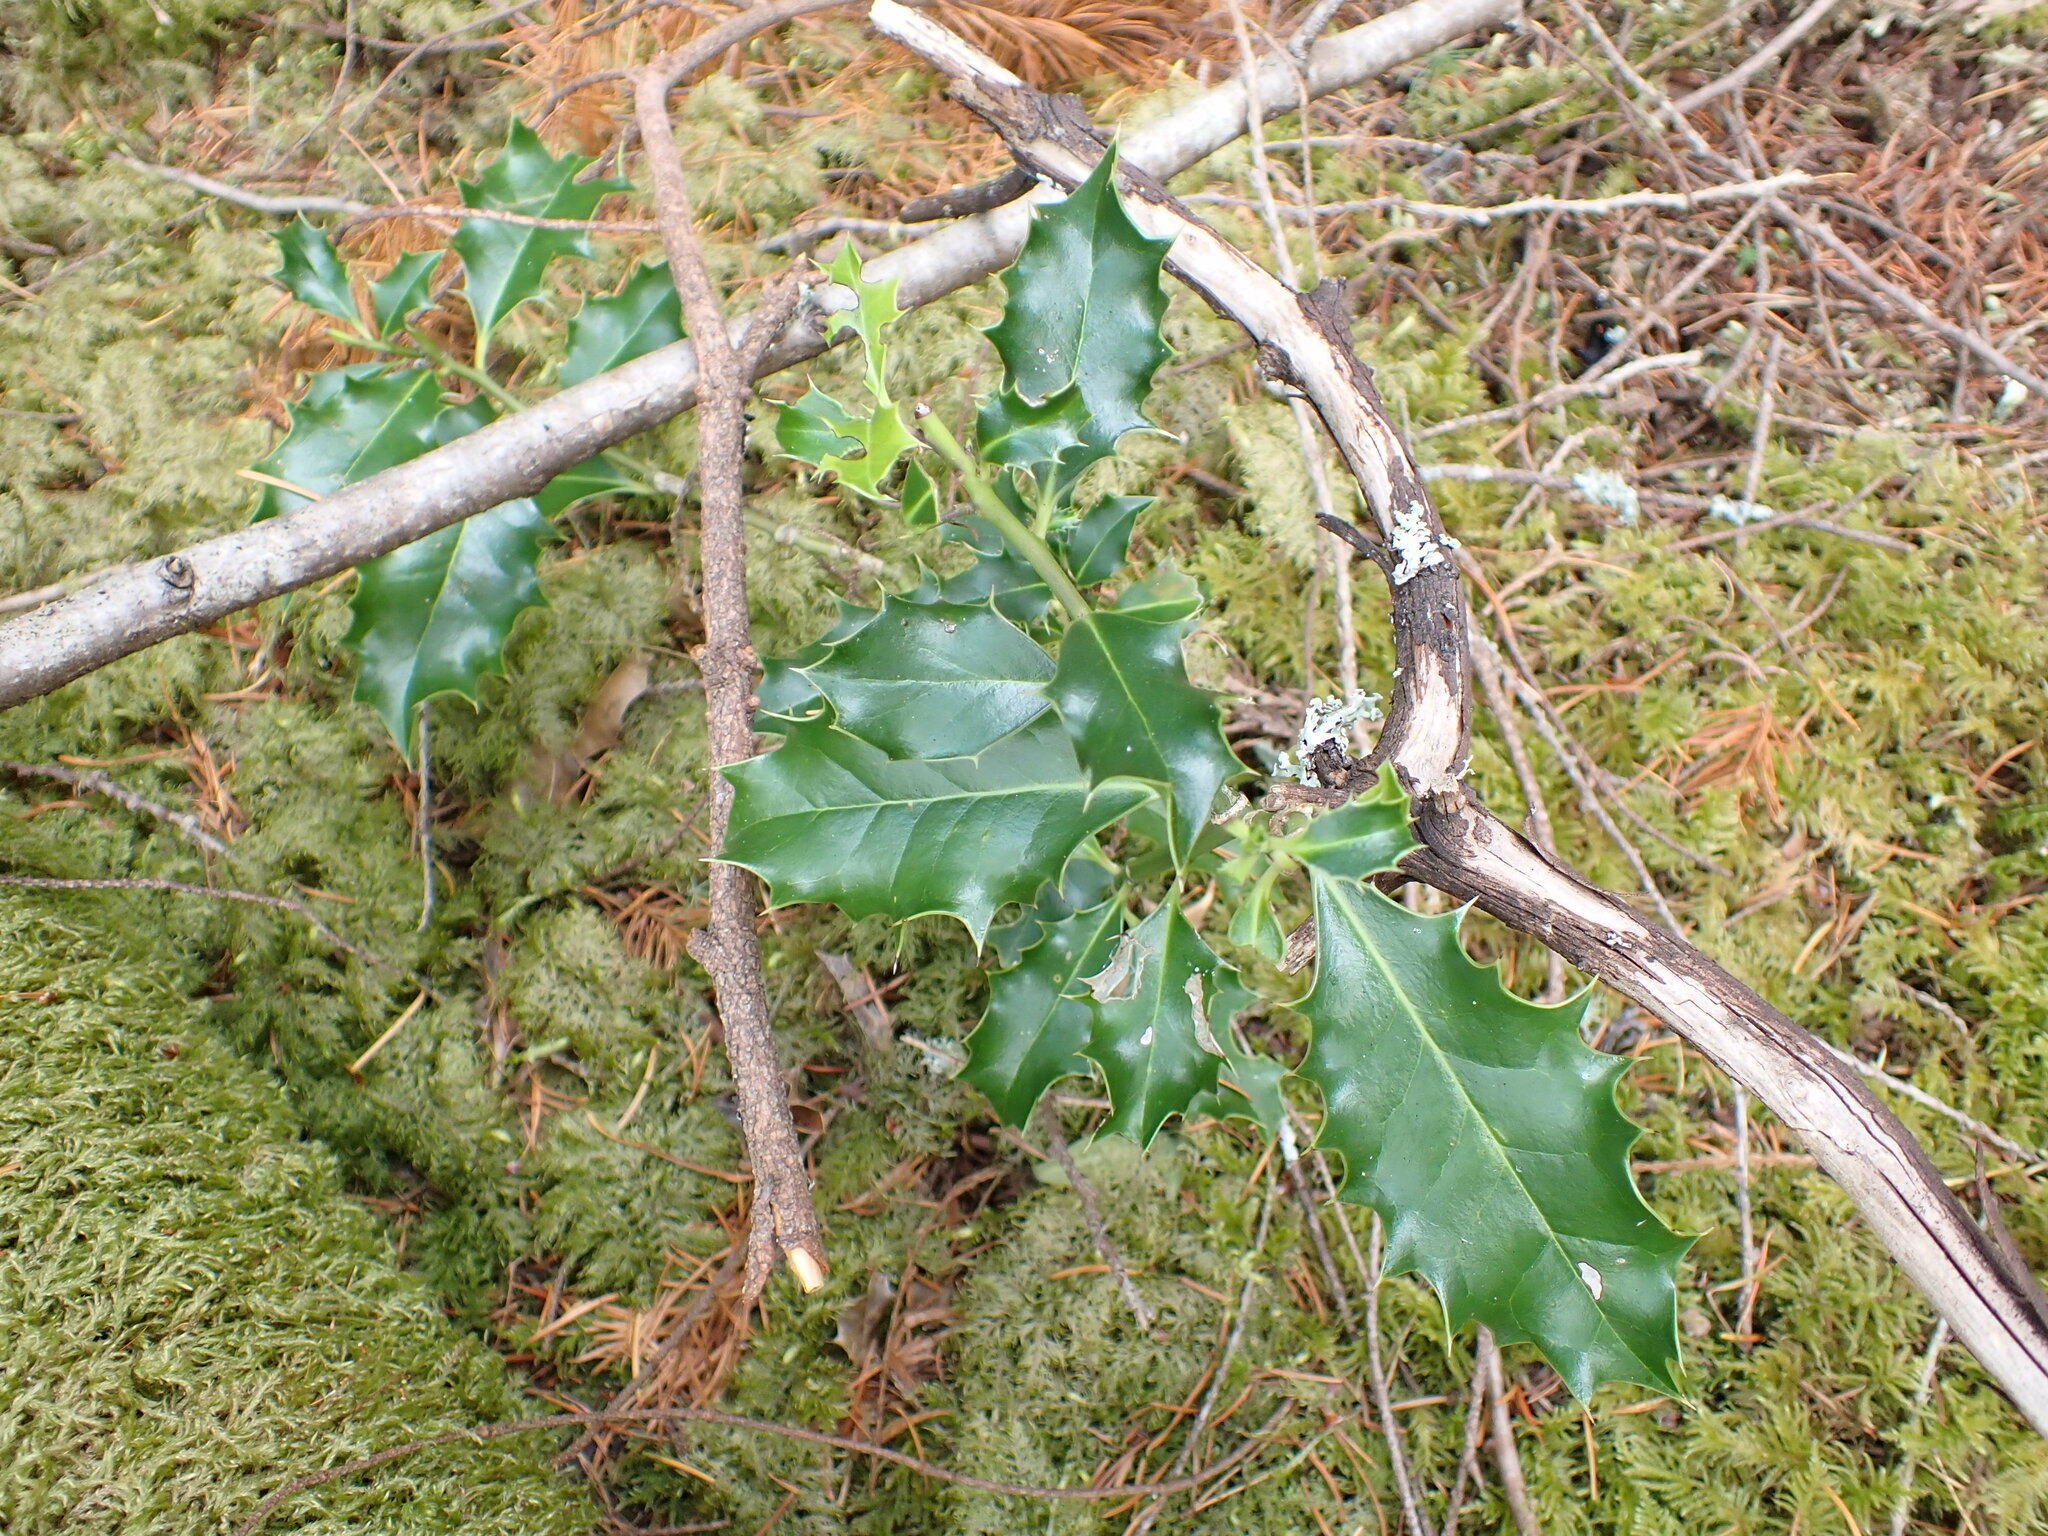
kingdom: Plantae
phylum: Tracheophyta
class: Magnoliopsida
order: Aquifoliales
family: Aquifoliaceae
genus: Ilex
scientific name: Ilex aquifolium
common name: English holly
